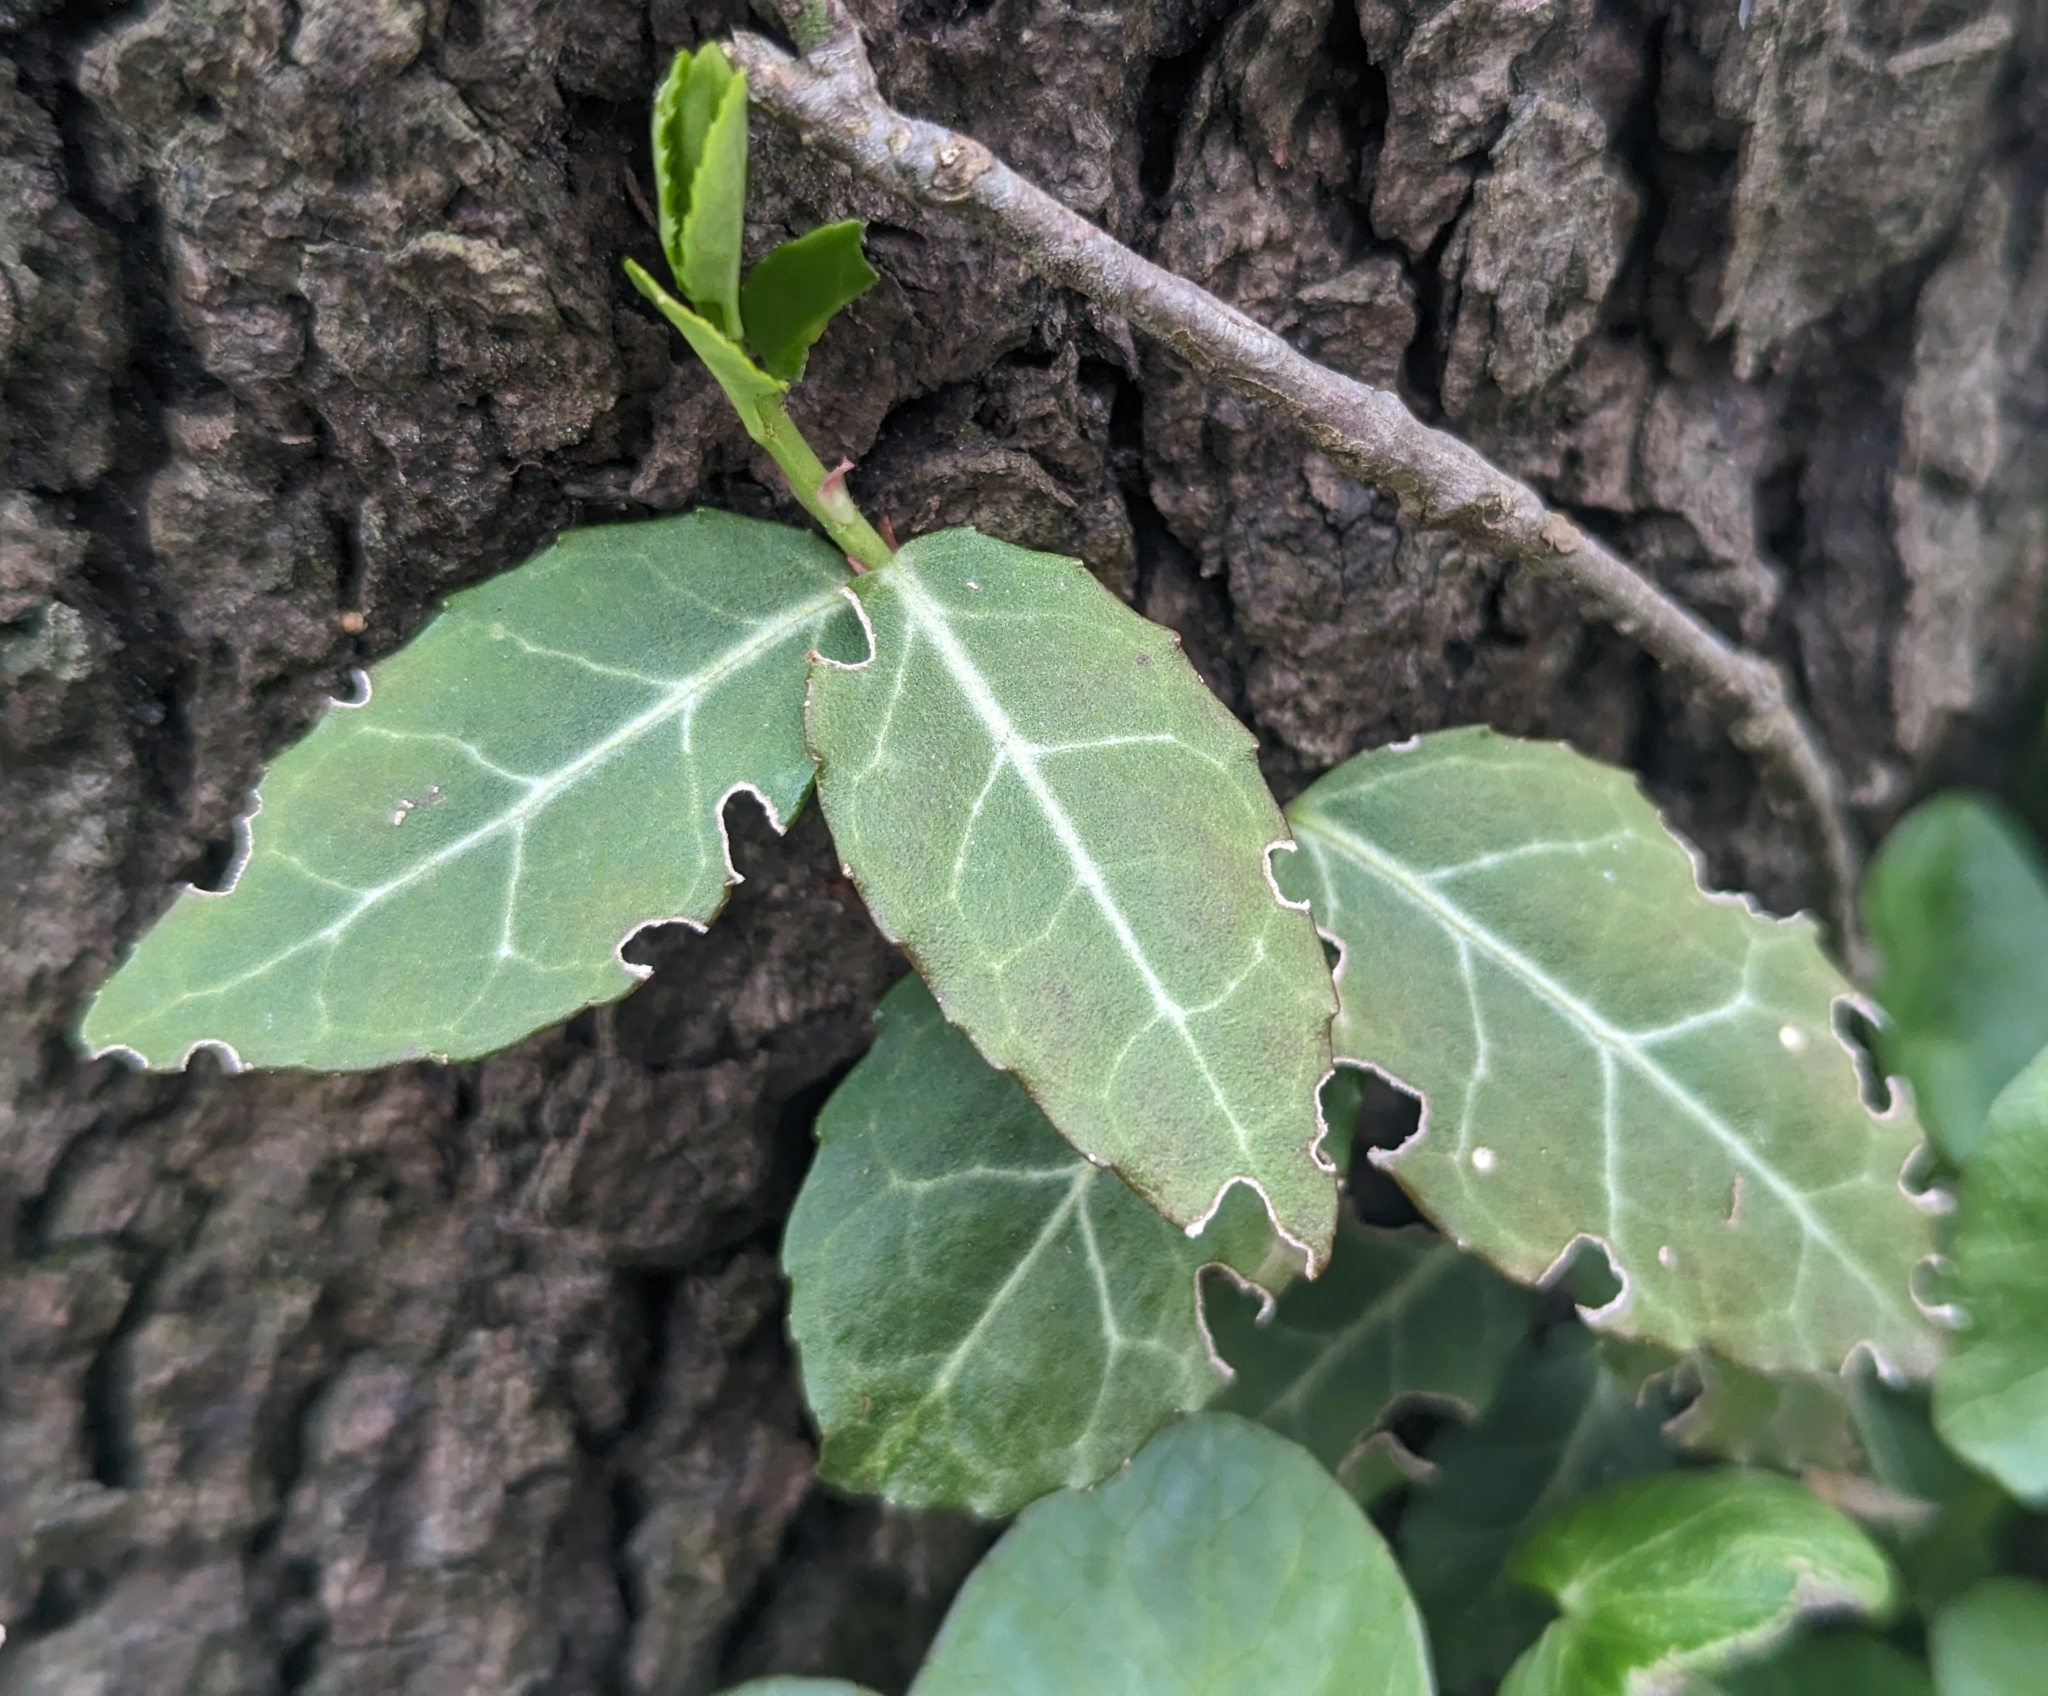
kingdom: Plantae
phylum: Tracheophyta
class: Magnoliopsida
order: Celastrales
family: Celastraceae
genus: Euonymus
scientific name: Euonymus fortunei
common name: Climbing euonymus
